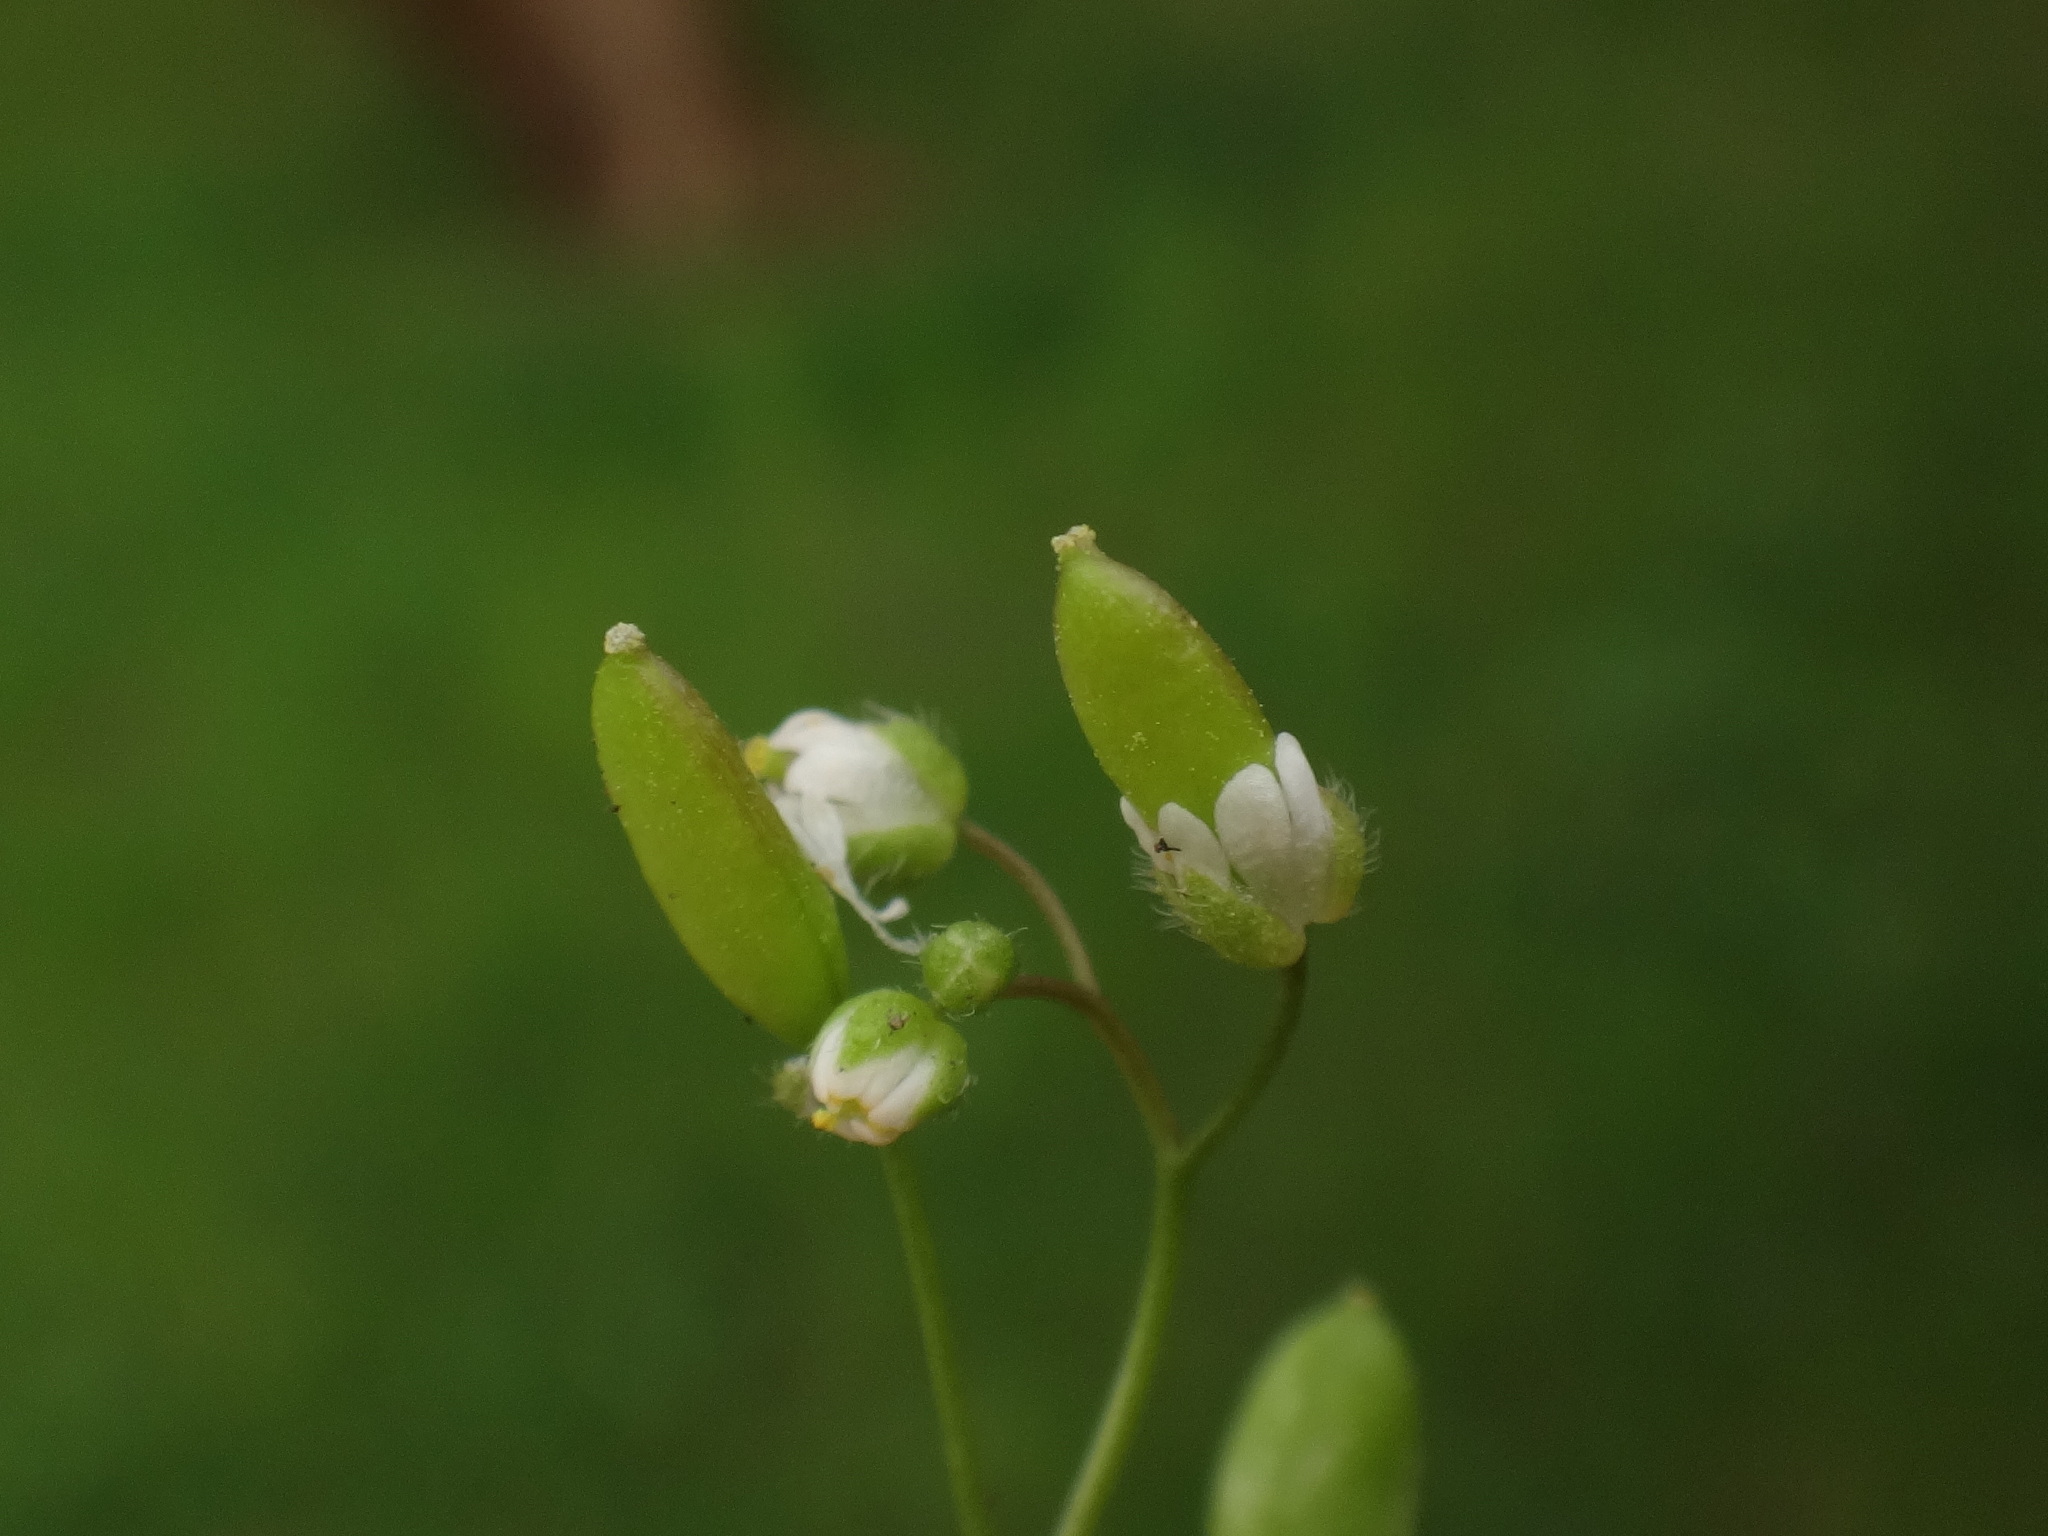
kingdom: Plantae
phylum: Tracheophyta
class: Magnoliopsida
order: Brassicales
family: Brassicaceae
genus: Draba
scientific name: Draba verna
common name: Spring draba
